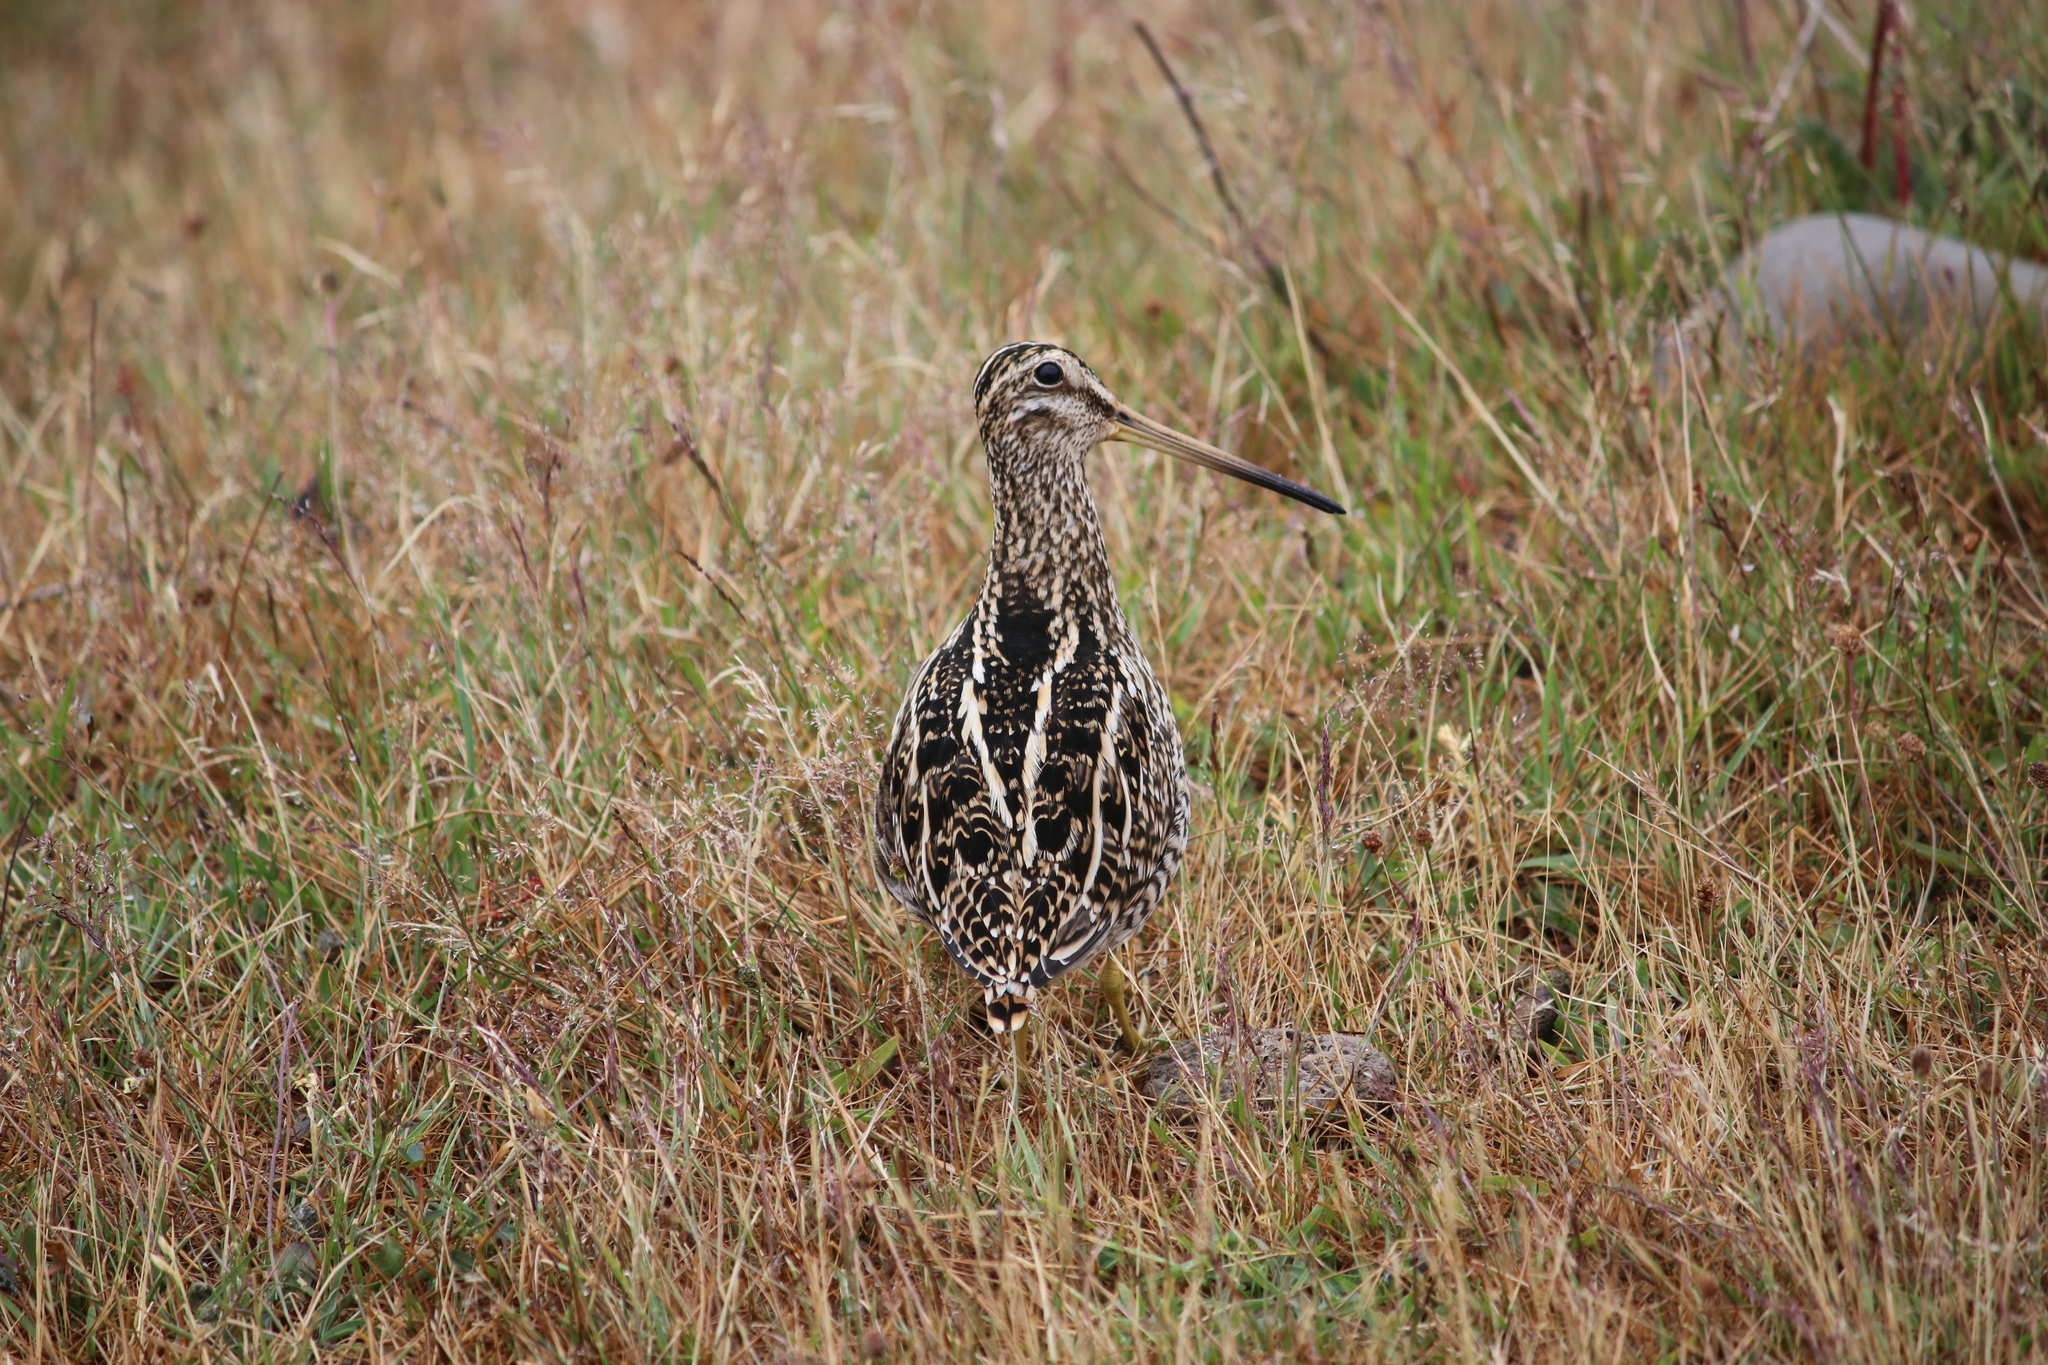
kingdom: Animalia
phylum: Chordata
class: Aves
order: Charadriiformes
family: Scolopacidae
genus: Gallinago
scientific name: Gallinago magellanica
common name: Magellanic snipe
